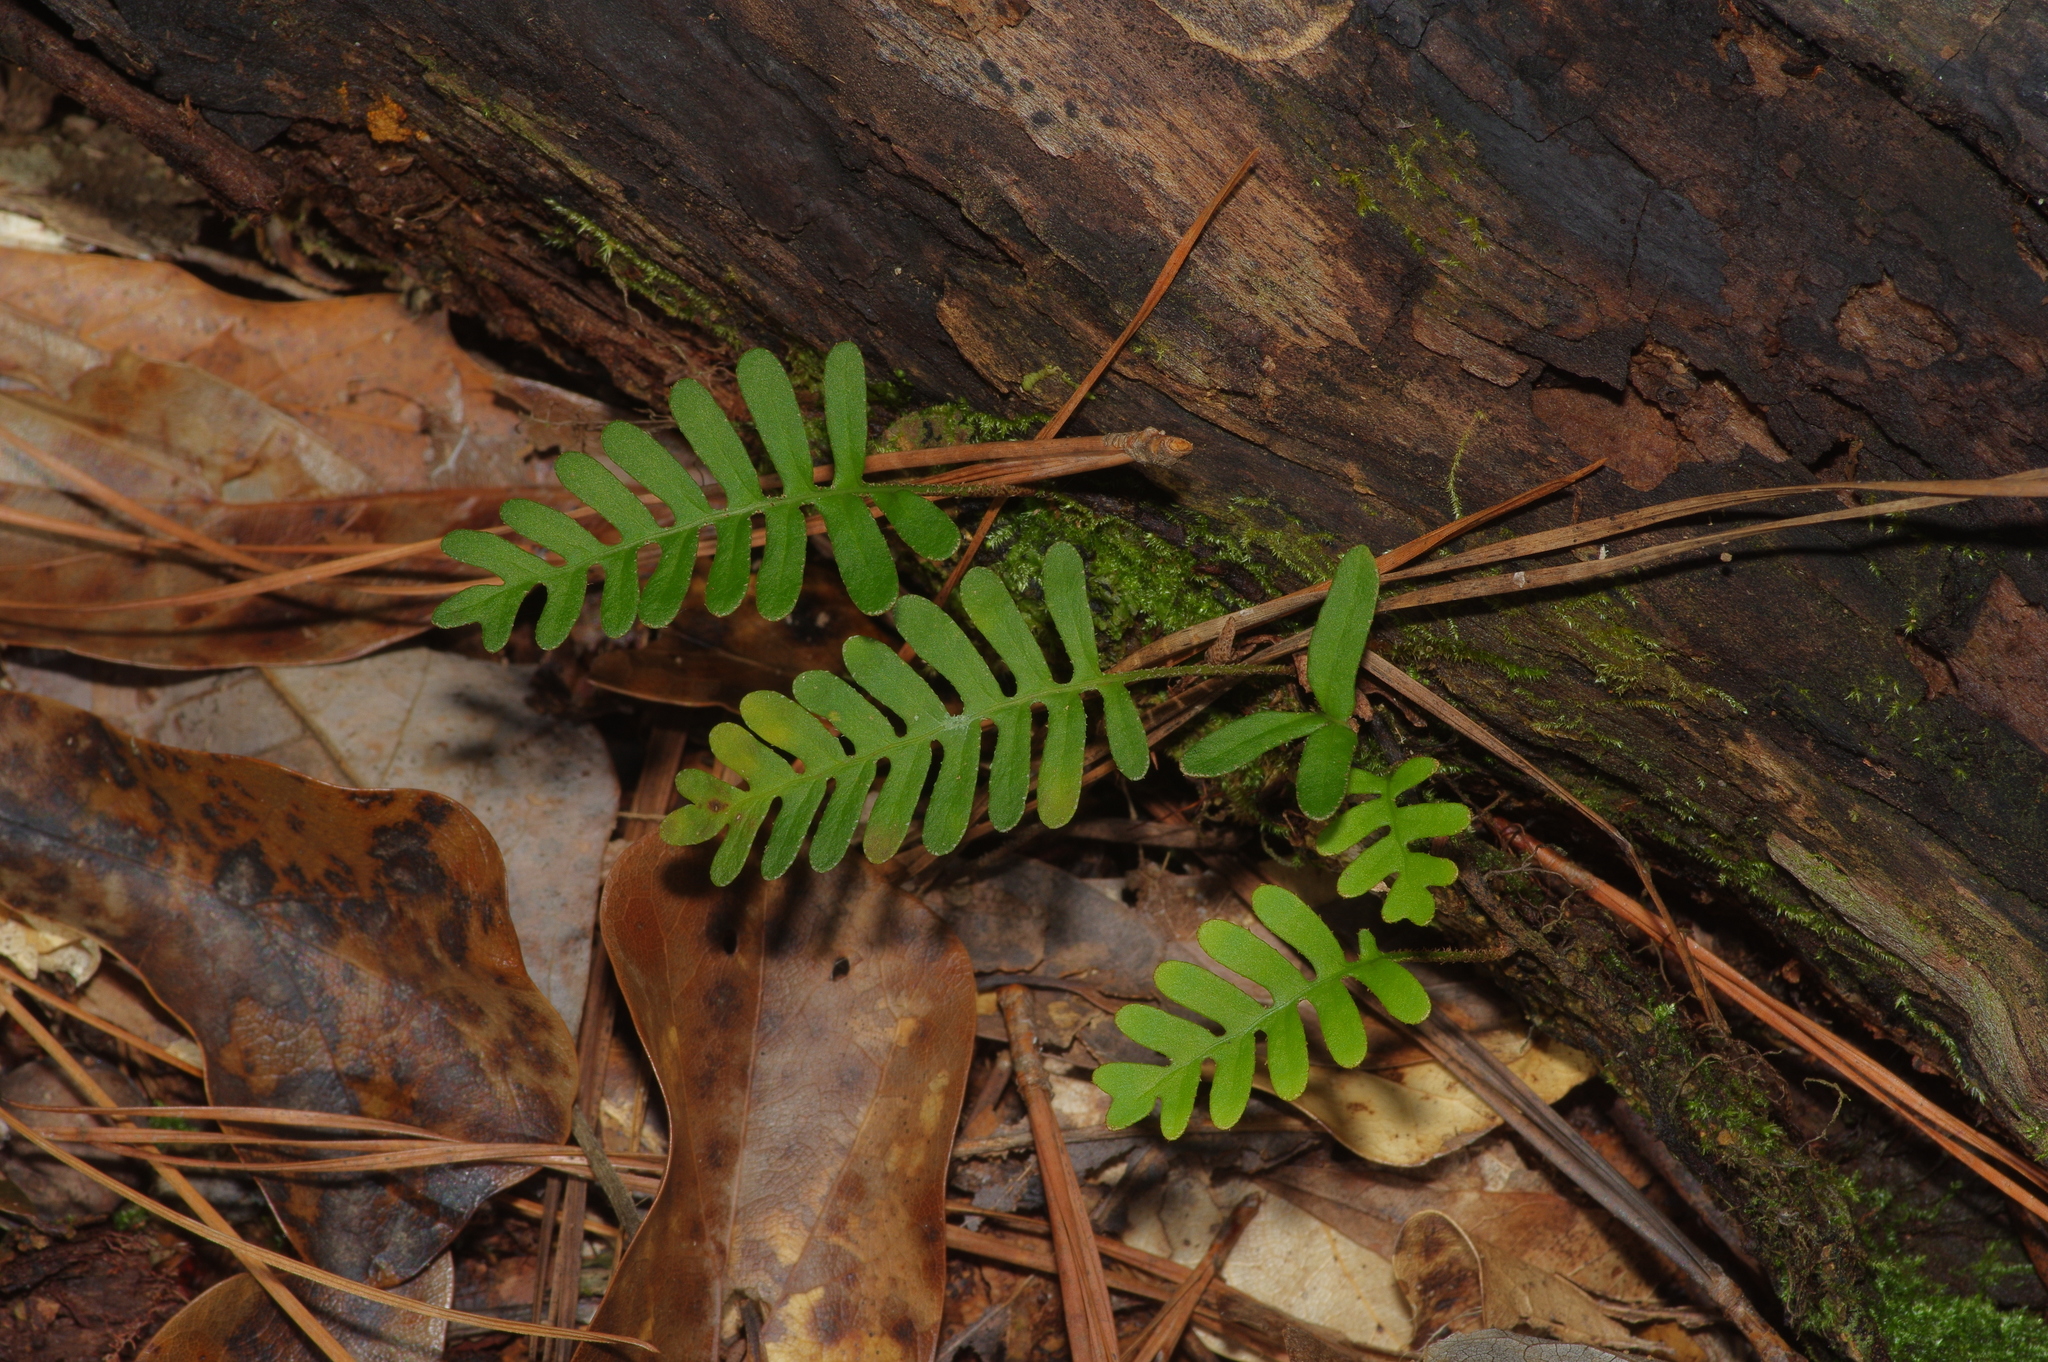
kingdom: Plantae
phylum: Tracheophyta
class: Polypodiopsida
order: Polypodiales
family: Polypodiaceae
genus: Pleopeltis
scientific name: Pleopeltis michauxiana
